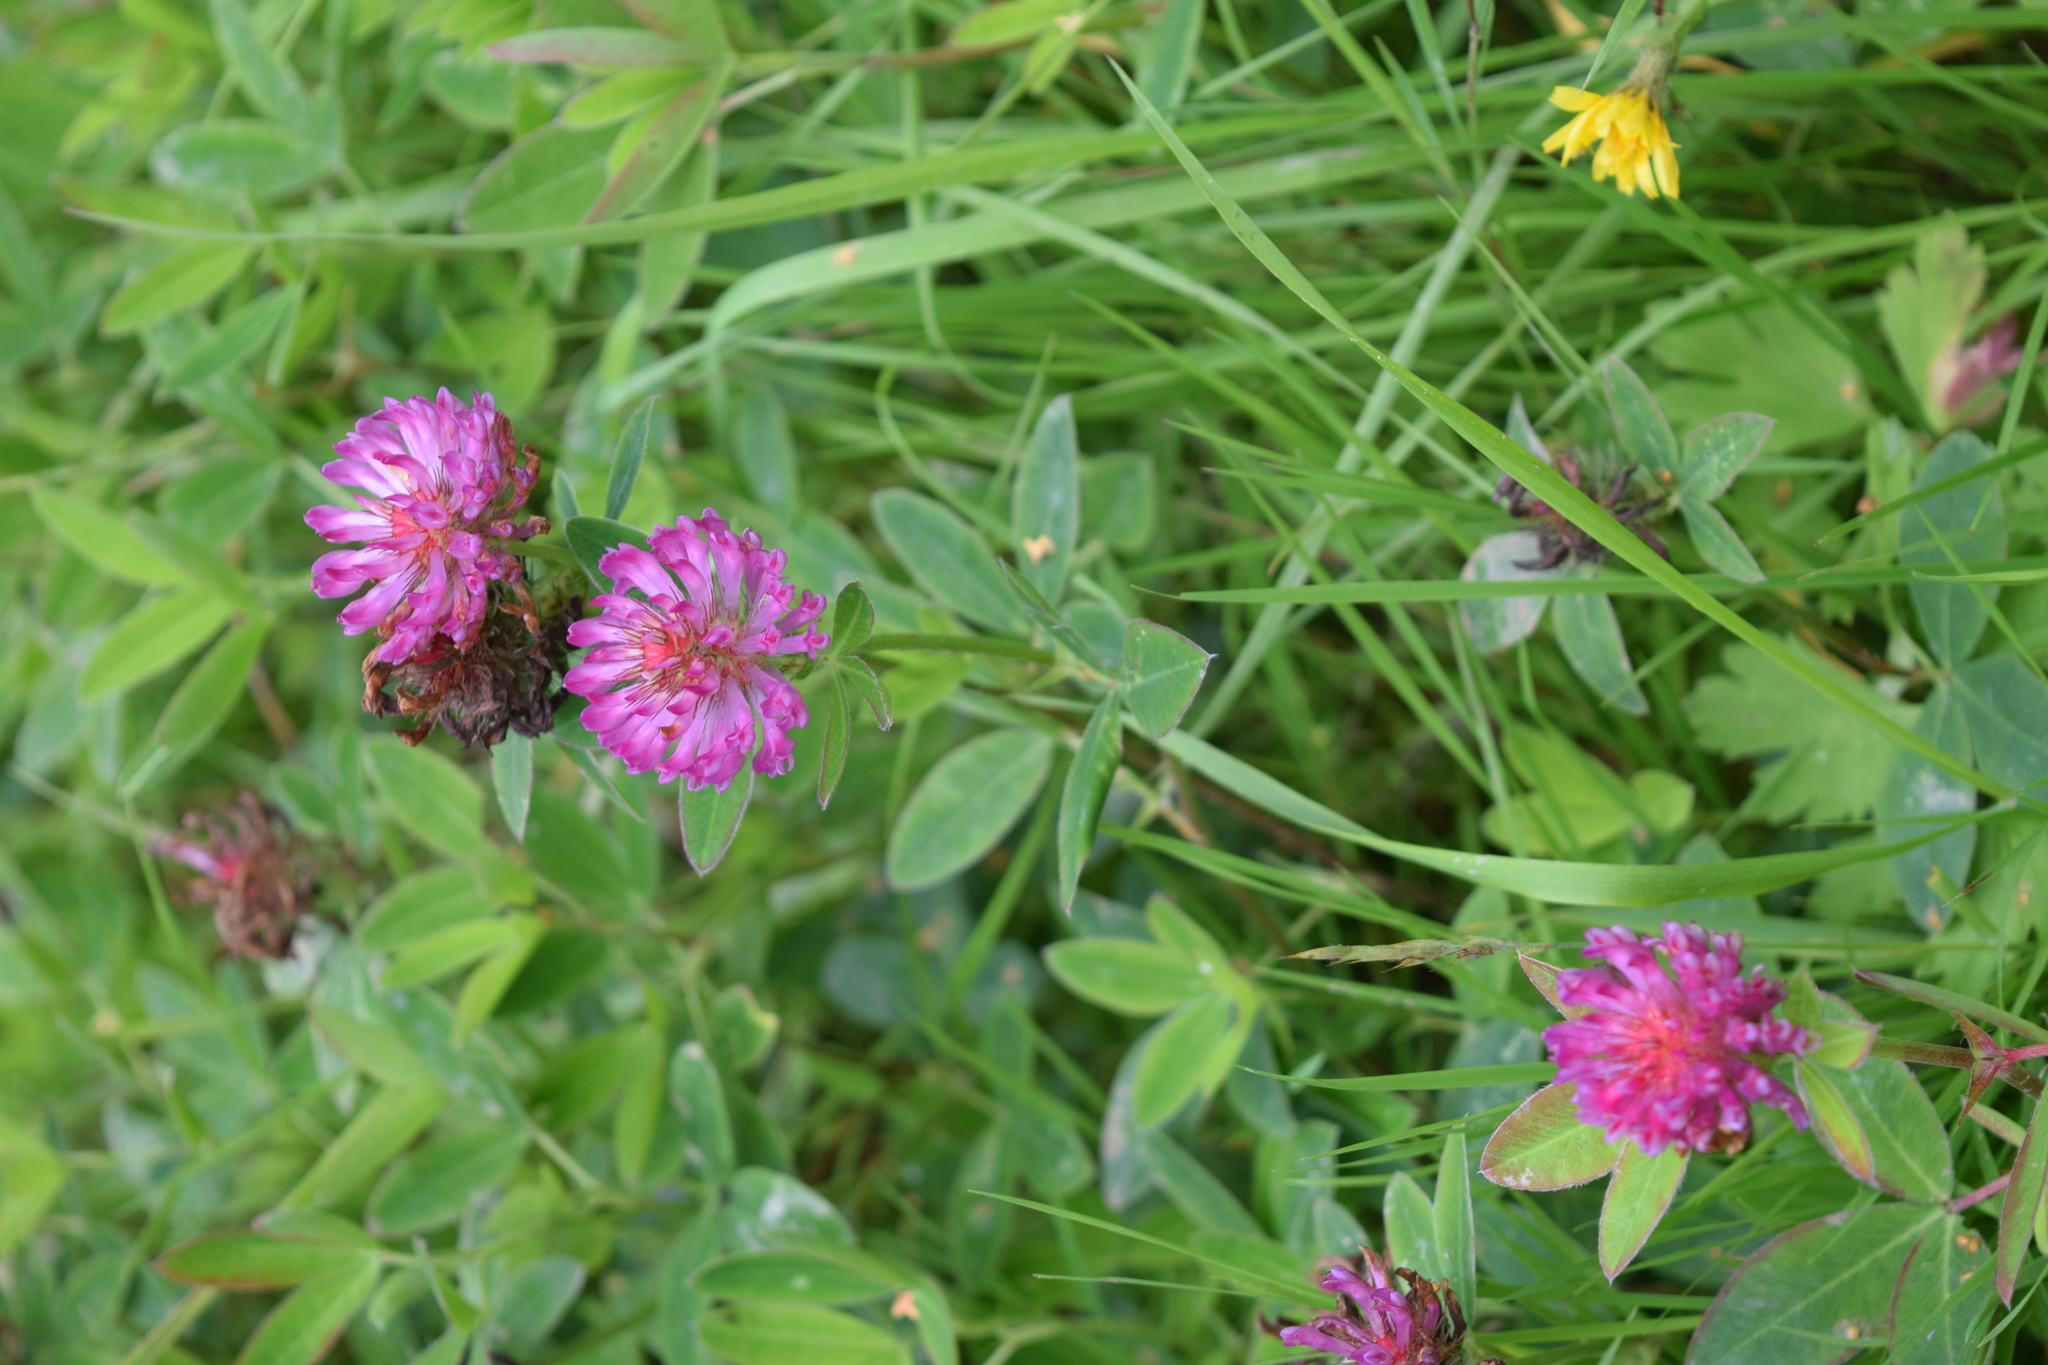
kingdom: Plantae
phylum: Tracheophyta
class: Magnoliopsida
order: Fabales
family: Fabaceae
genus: Trifolium
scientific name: Trifolium medium
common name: Zigzag clover
